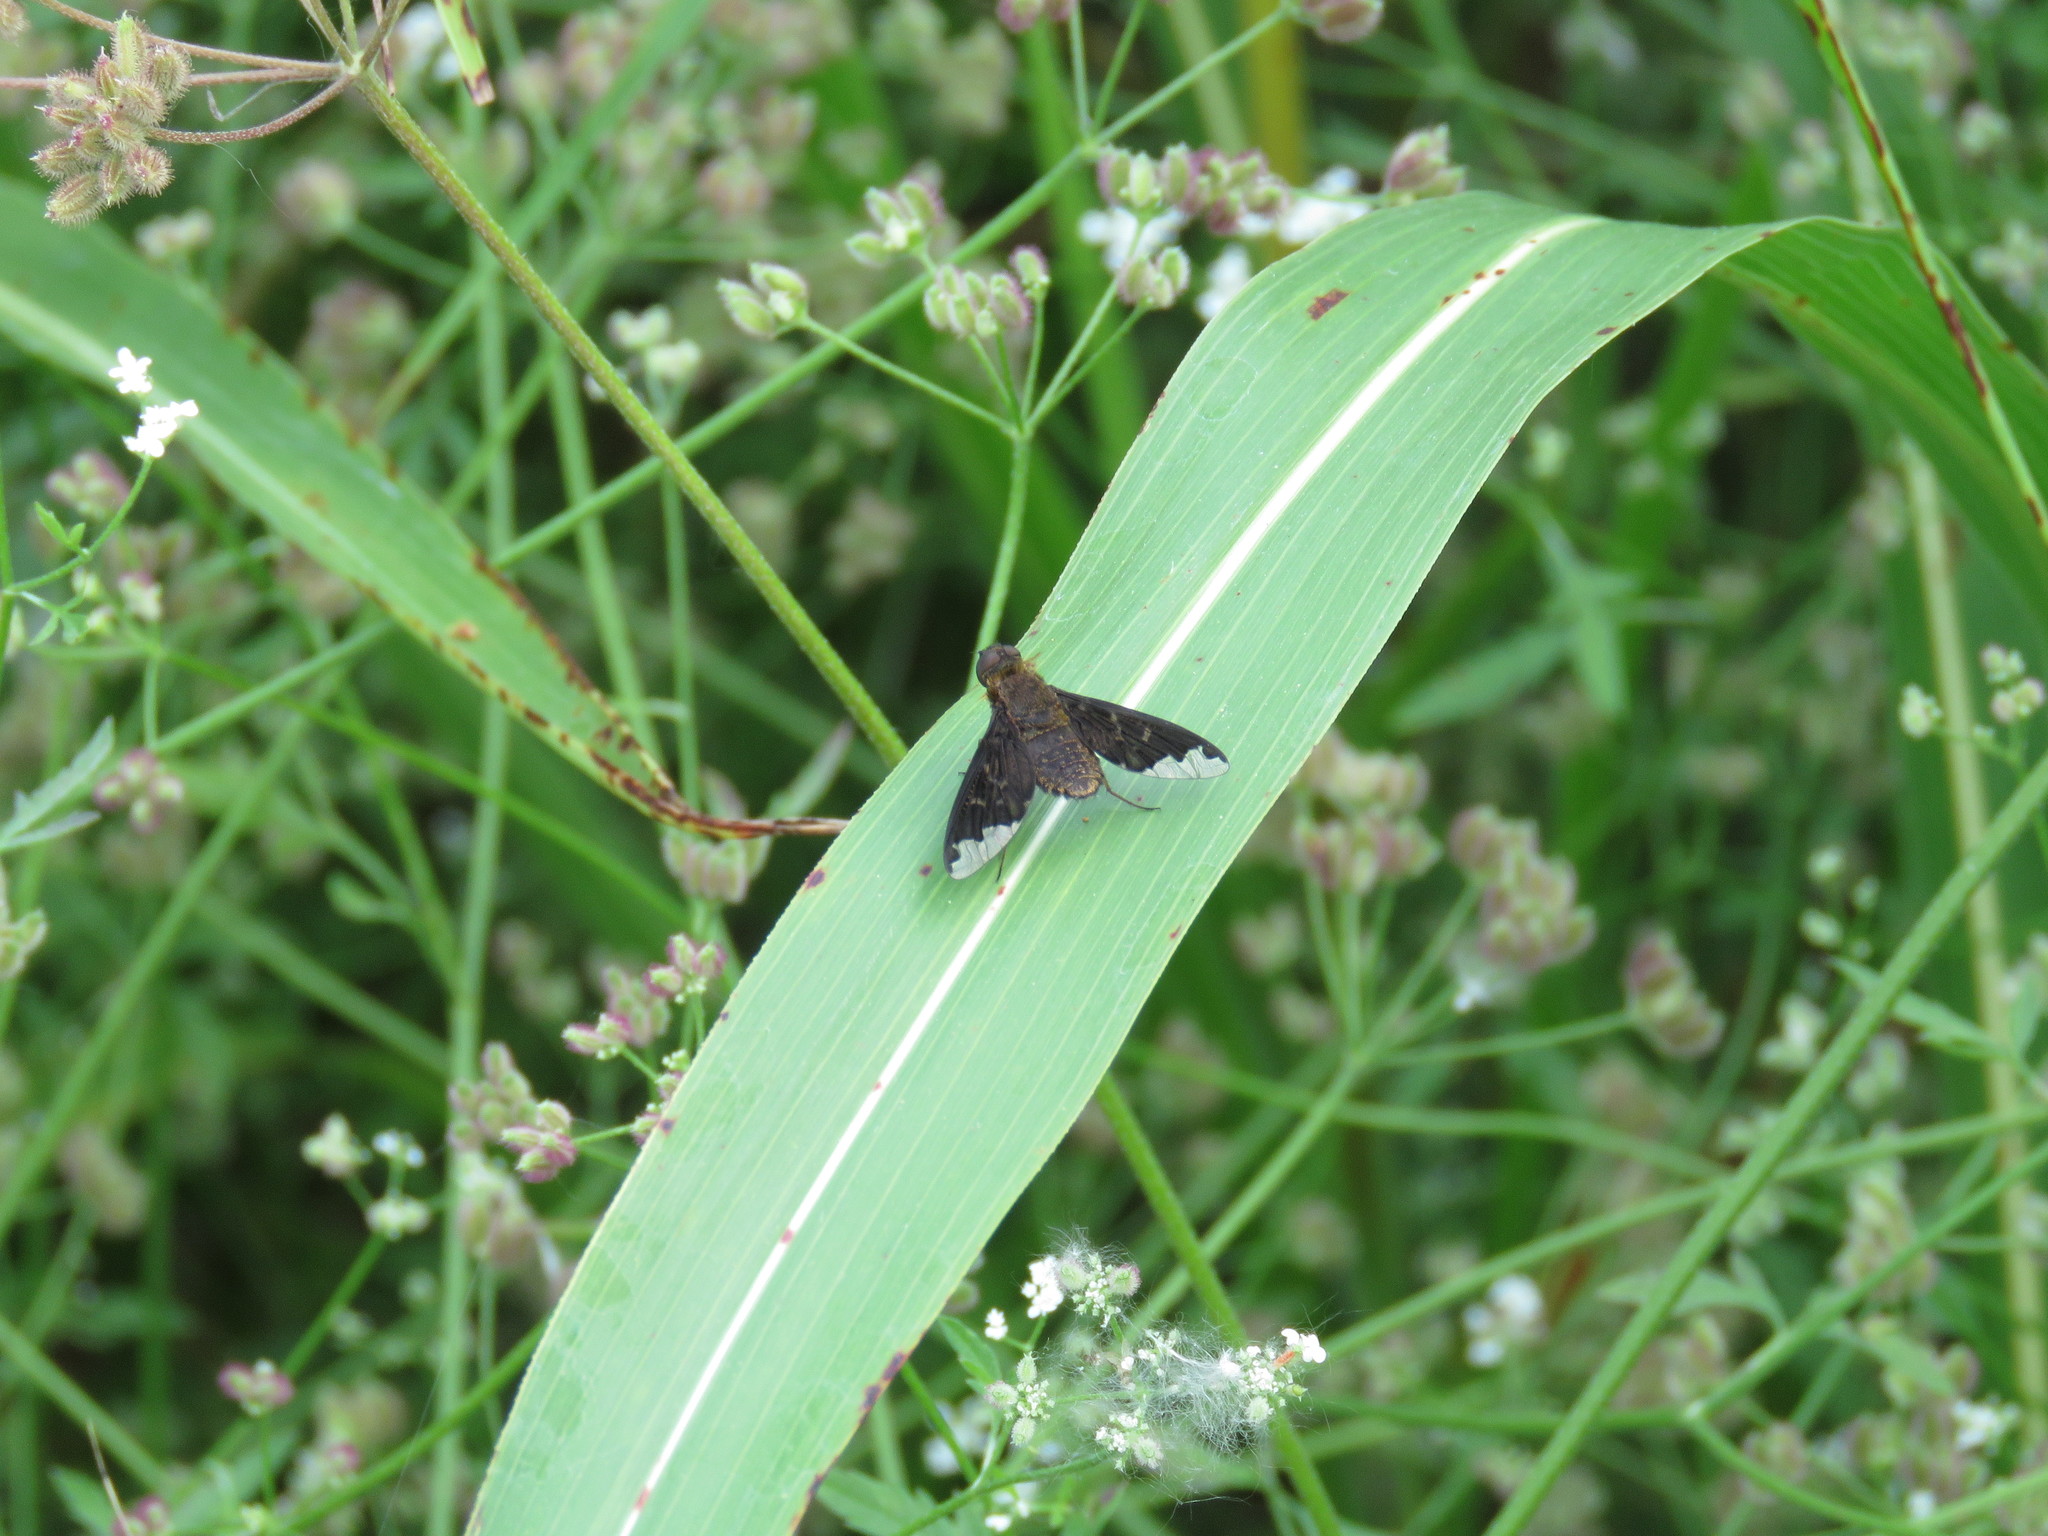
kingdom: Animalia
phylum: Arthropoda
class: Insecta
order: Diptera
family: Bombyliidae
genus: Hemipenthes
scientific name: Hemipenthes sinuosus
